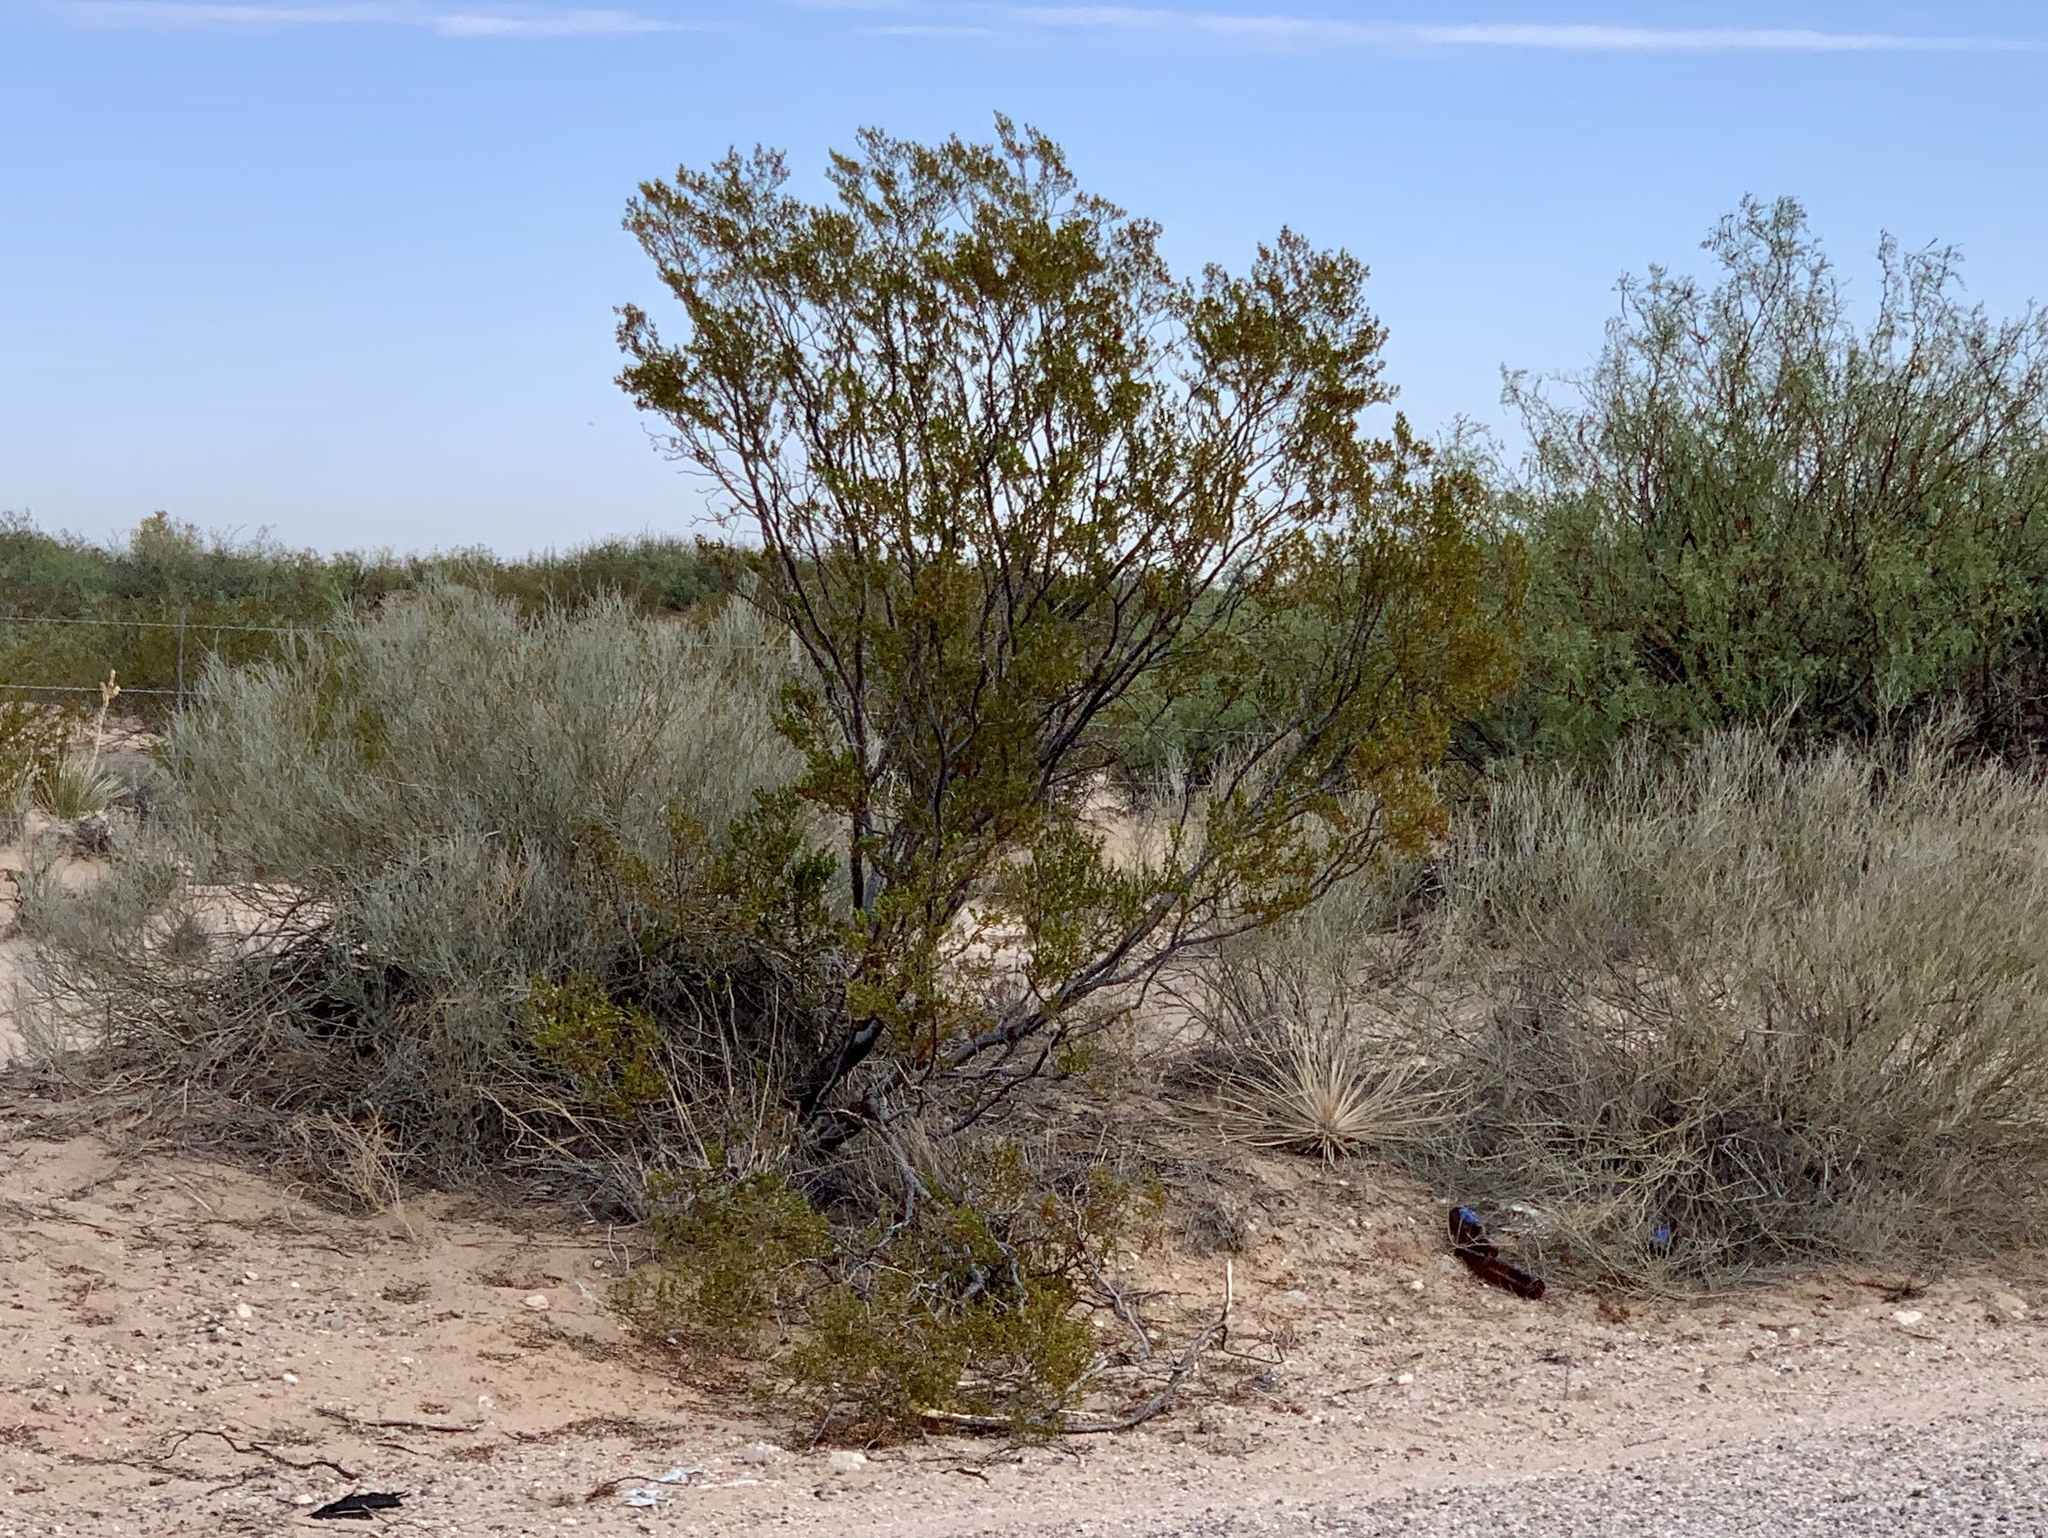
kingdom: Plantae
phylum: Tracheophyta
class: Magnoliopsida
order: Zygophyllales
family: Zygophyllaceae
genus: Larrea
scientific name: Larrea tridentata
